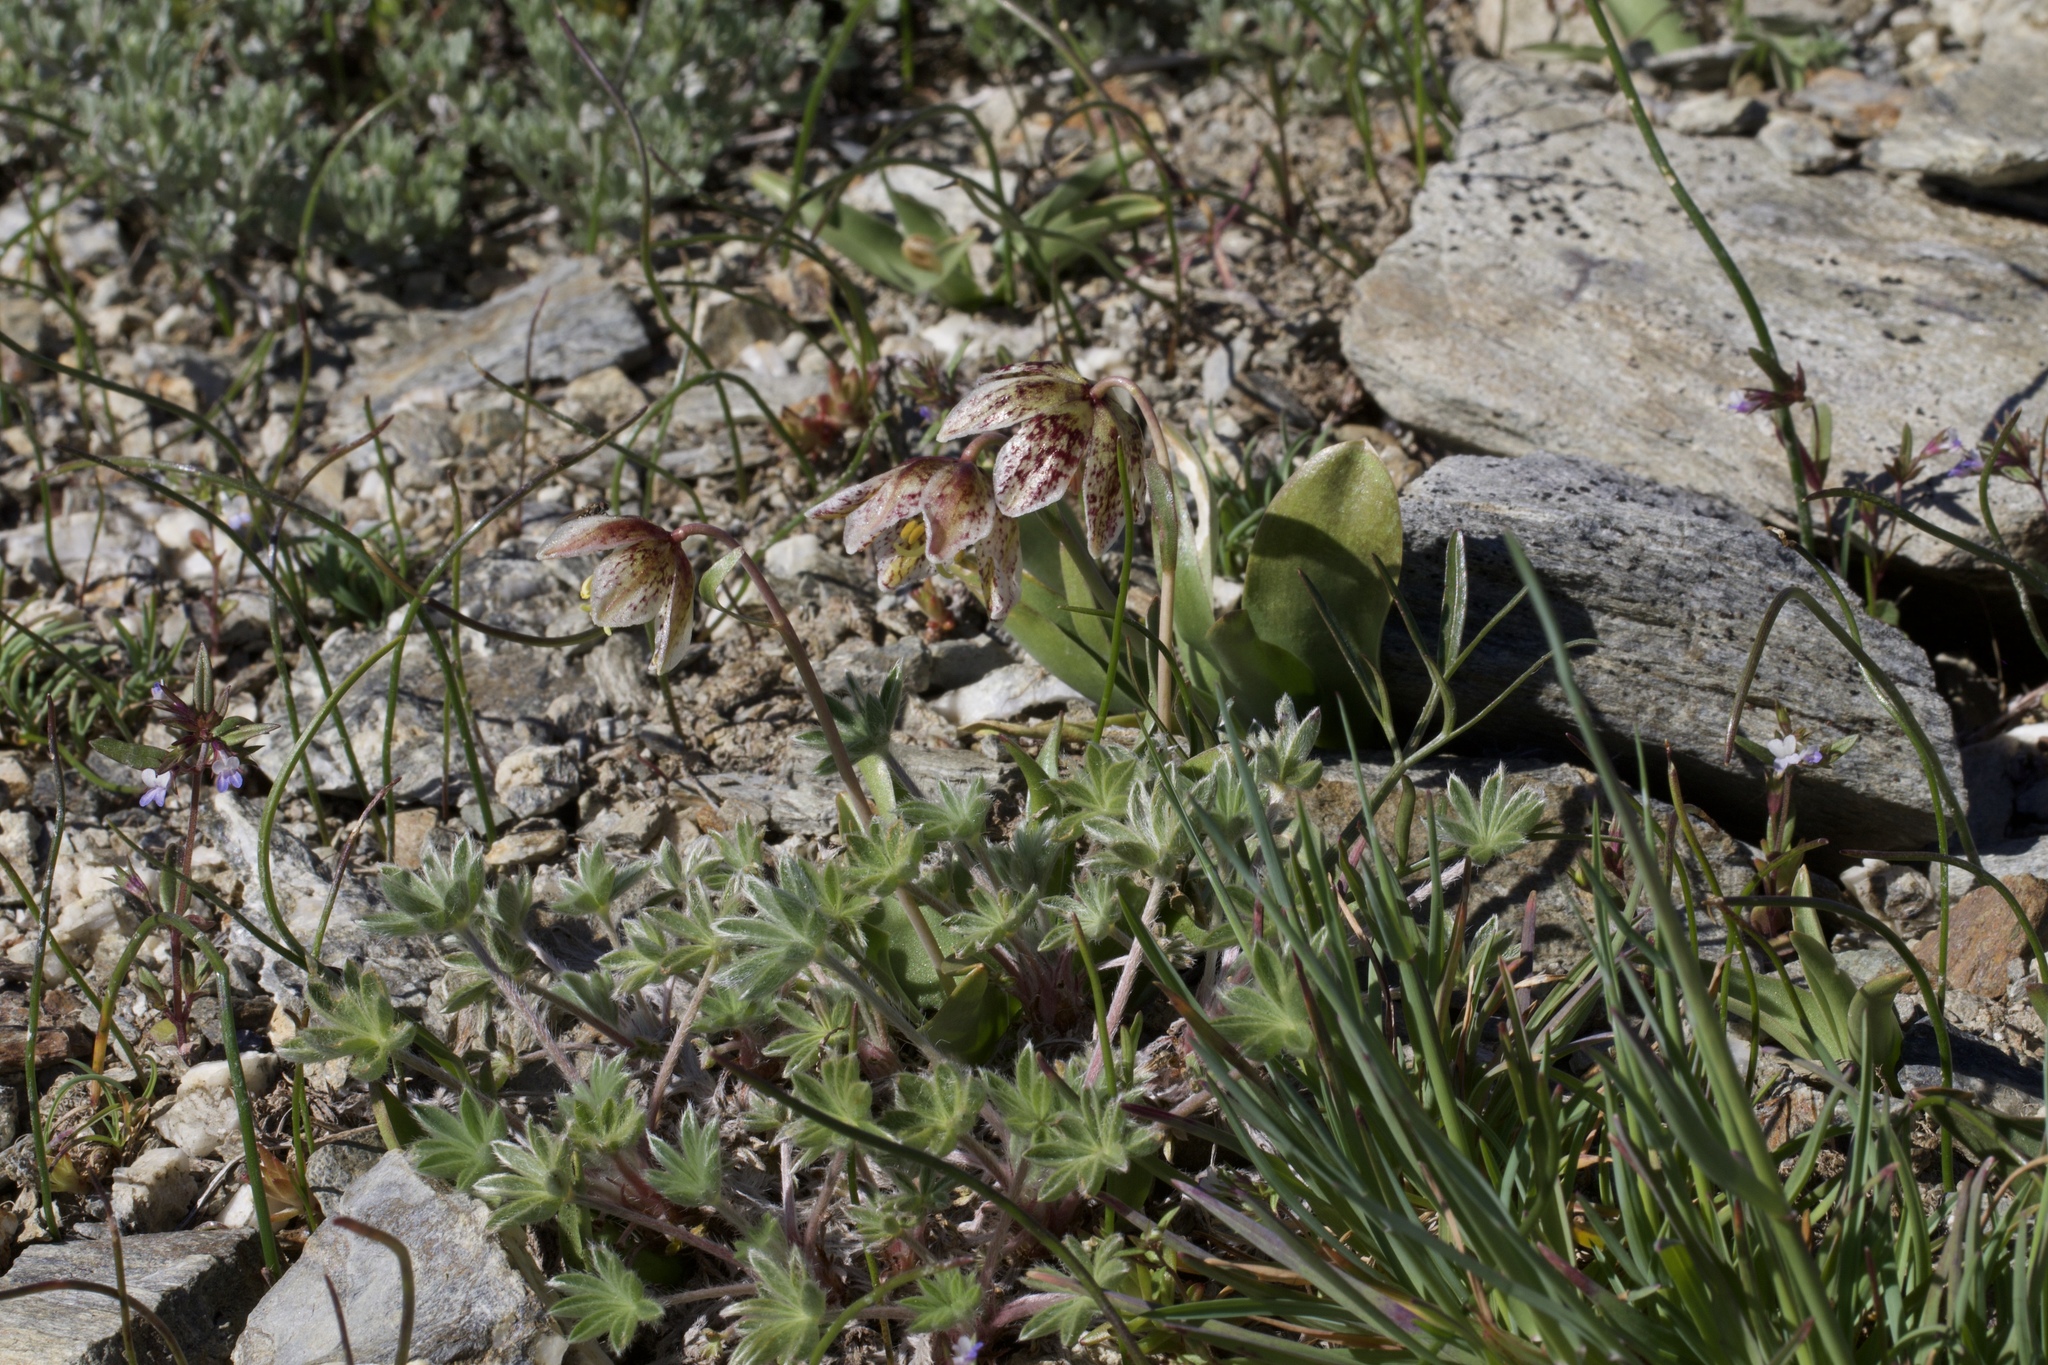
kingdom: Plantae
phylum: Tracheophyta
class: Liliopsida
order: Liliales
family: Liliaceae
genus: Fritillaria
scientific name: Fritillaria purdyi
